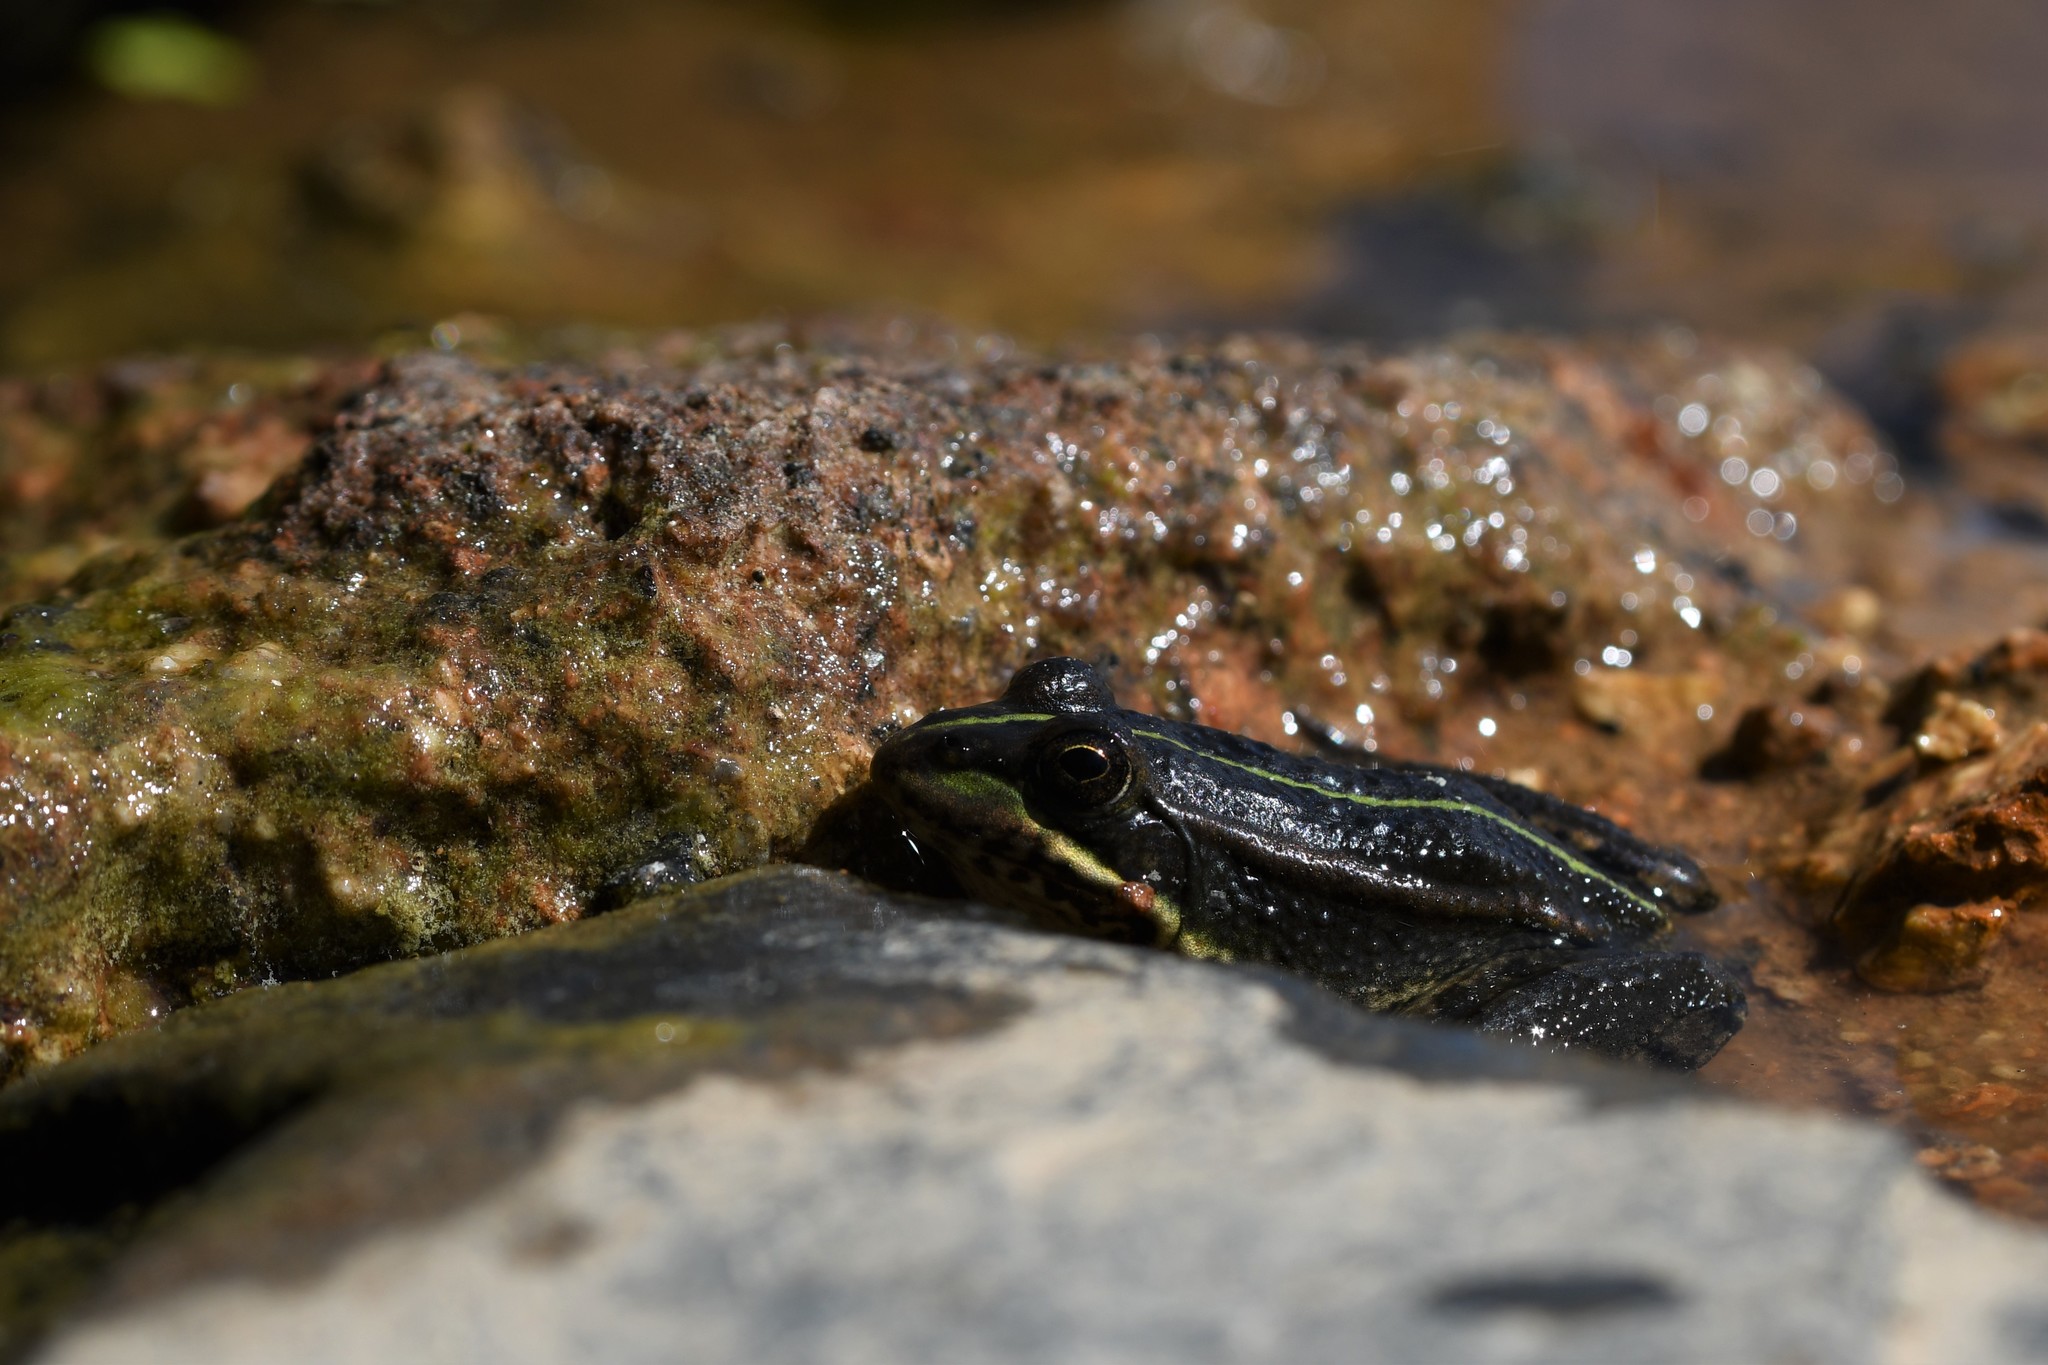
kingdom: Animalia
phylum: Chordata
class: Amphibia
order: Anura
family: Ranidae
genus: Pelophylax
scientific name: Pelophylax perezi
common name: Perez's frog
